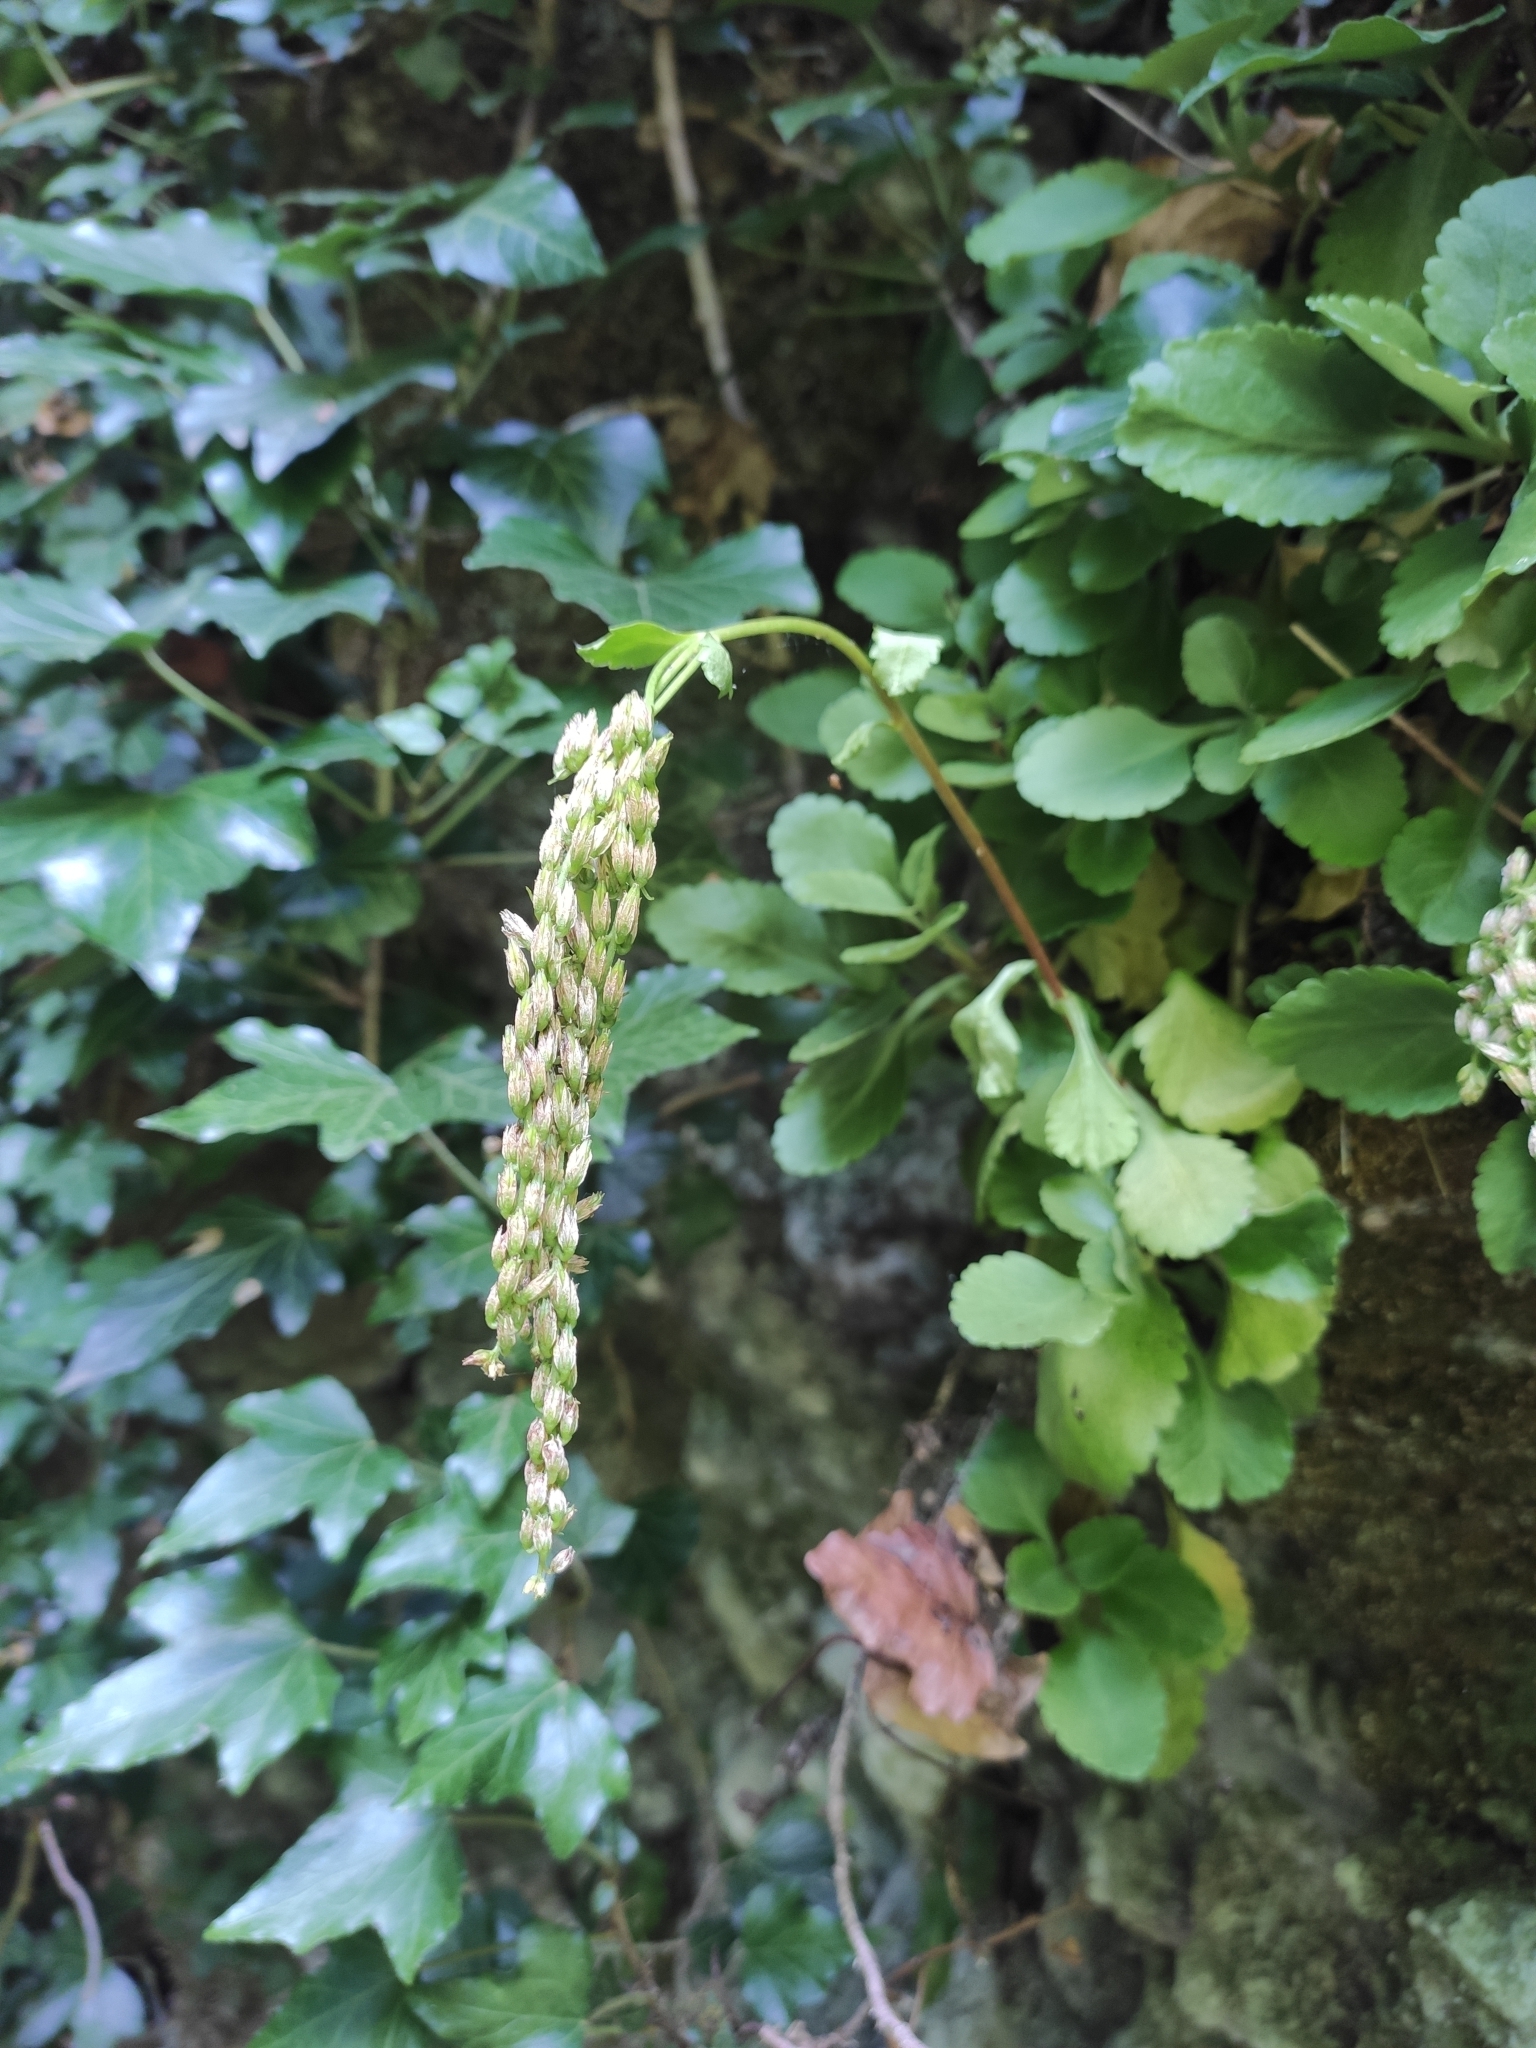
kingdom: Plantae
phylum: Tracheophyta
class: Magnoliopsida
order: Saxifragales
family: Crassulaceae
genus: Umbilicus
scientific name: Umbilicus oppositifolius
